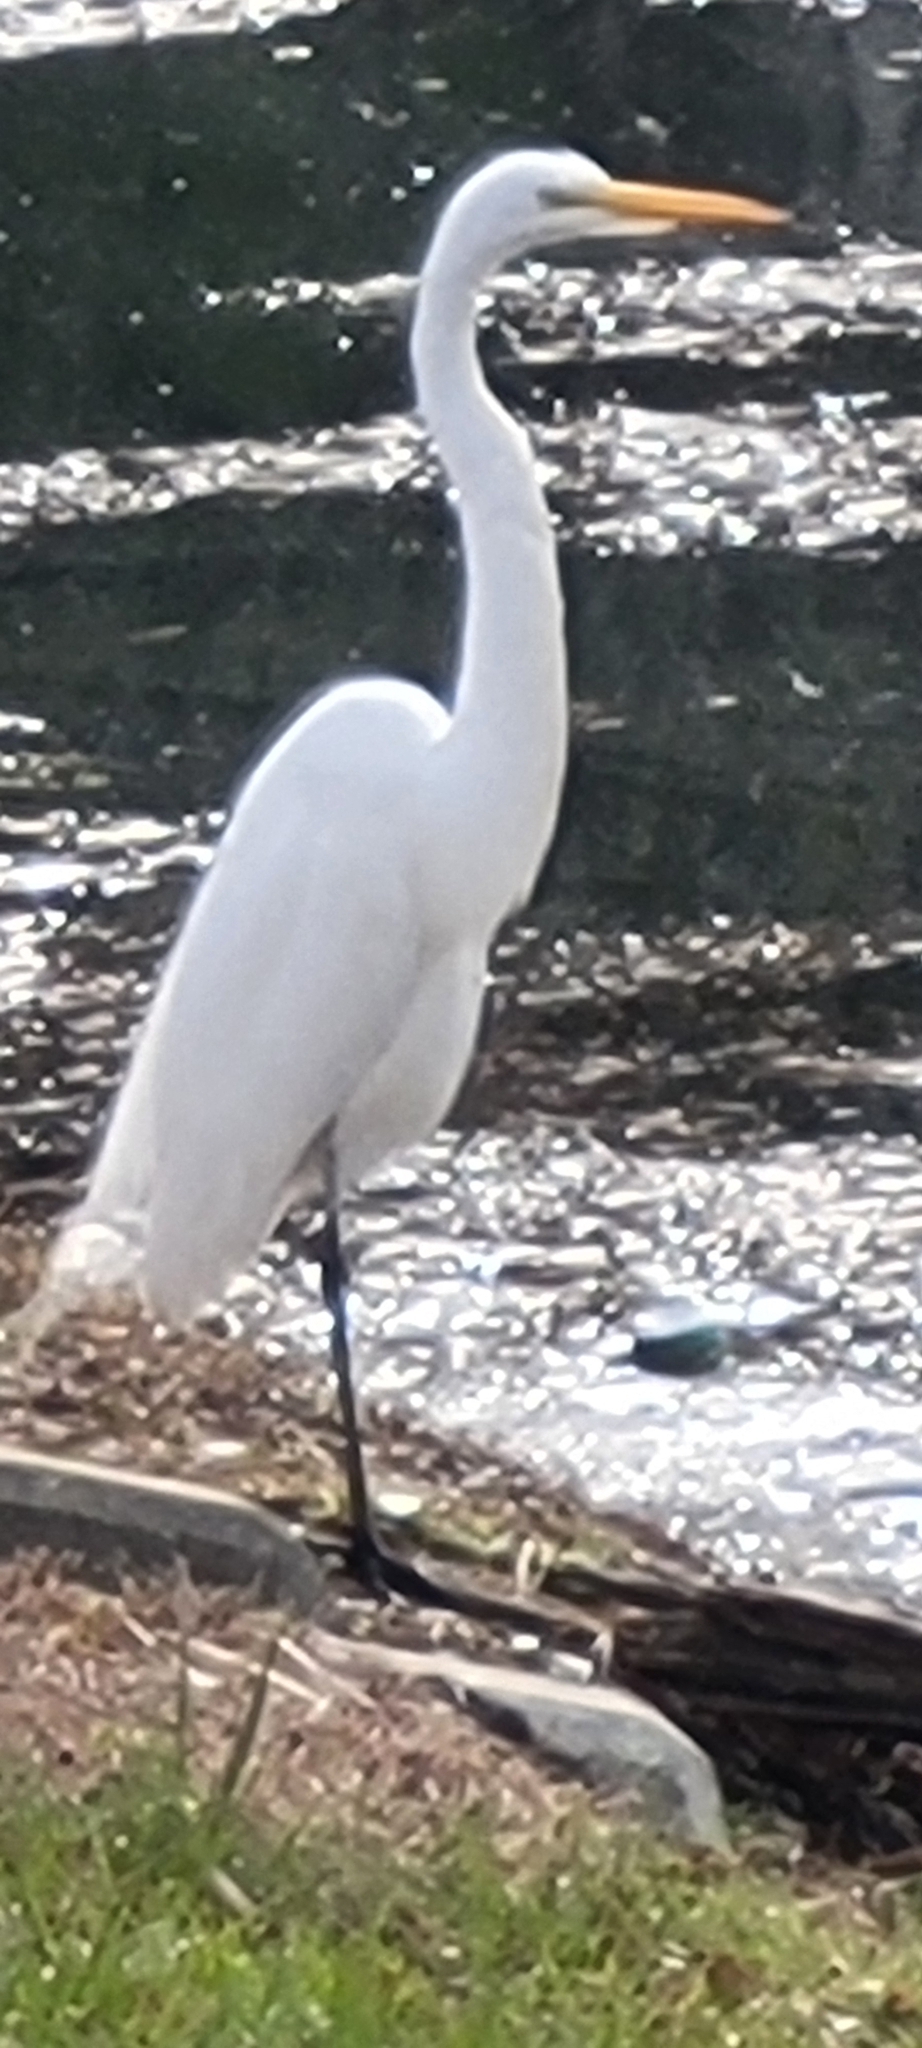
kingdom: Animalia
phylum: Chordata
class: Aves
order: Pelecaniformes
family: Ardeidae
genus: Ardea
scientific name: Ardea alba
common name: Great egret
